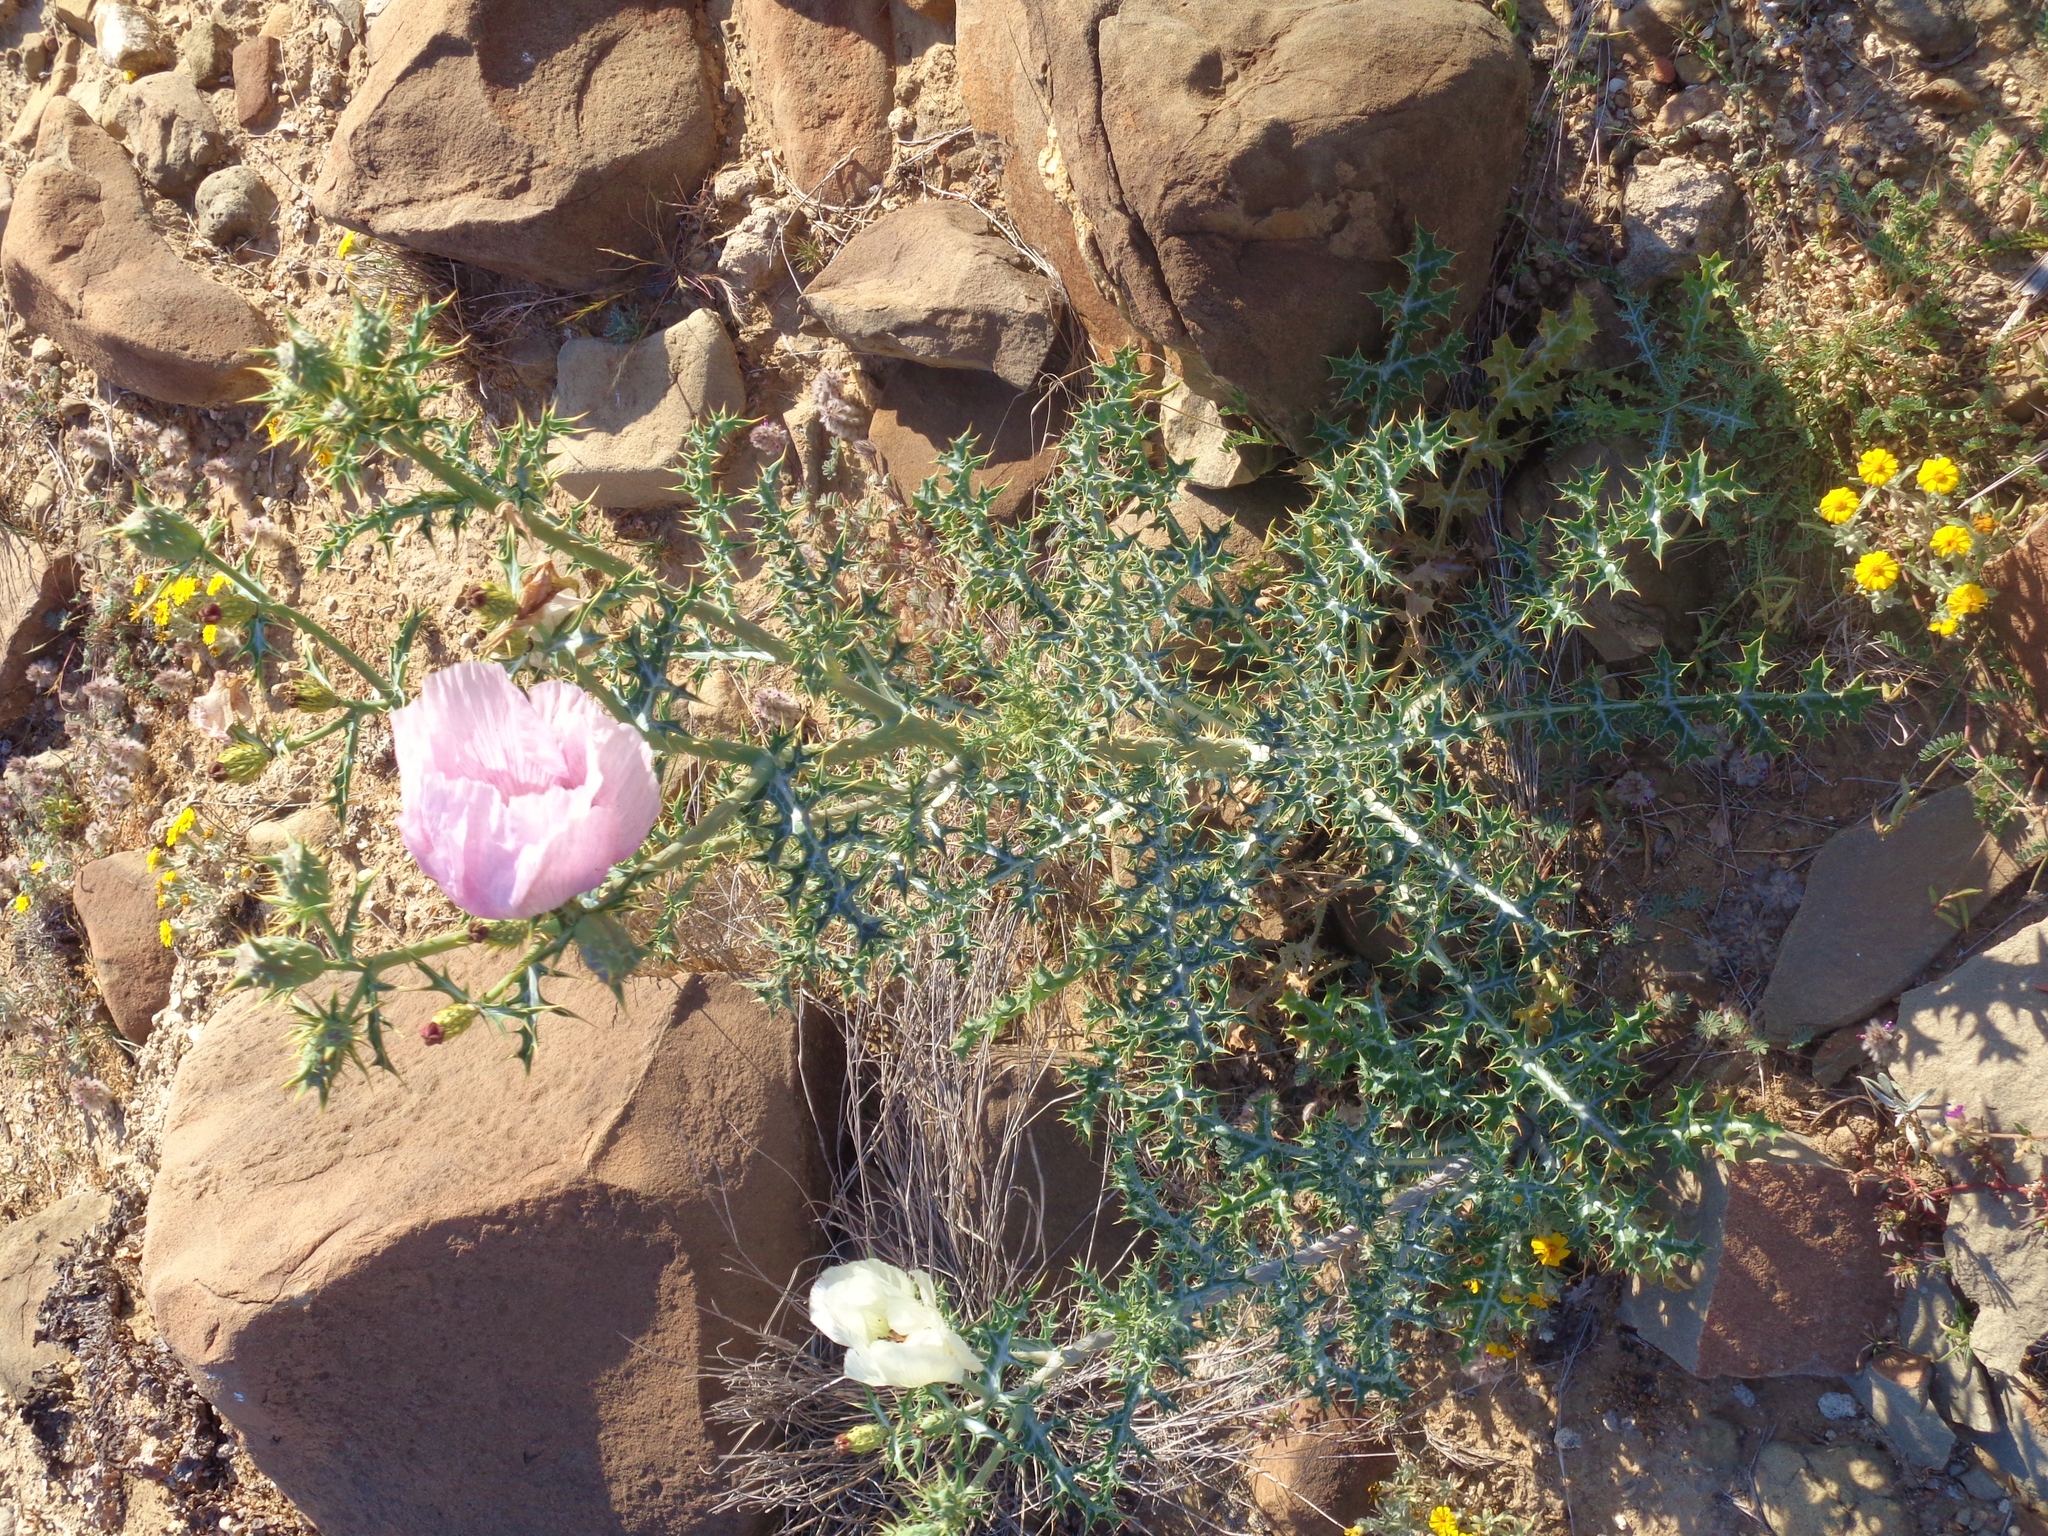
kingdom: Plantae
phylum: Tracheophyta
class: Magnoliopsida
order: Ranunculales
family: Papaveraceae
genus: Argemone
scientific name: Argemone sanguinea
